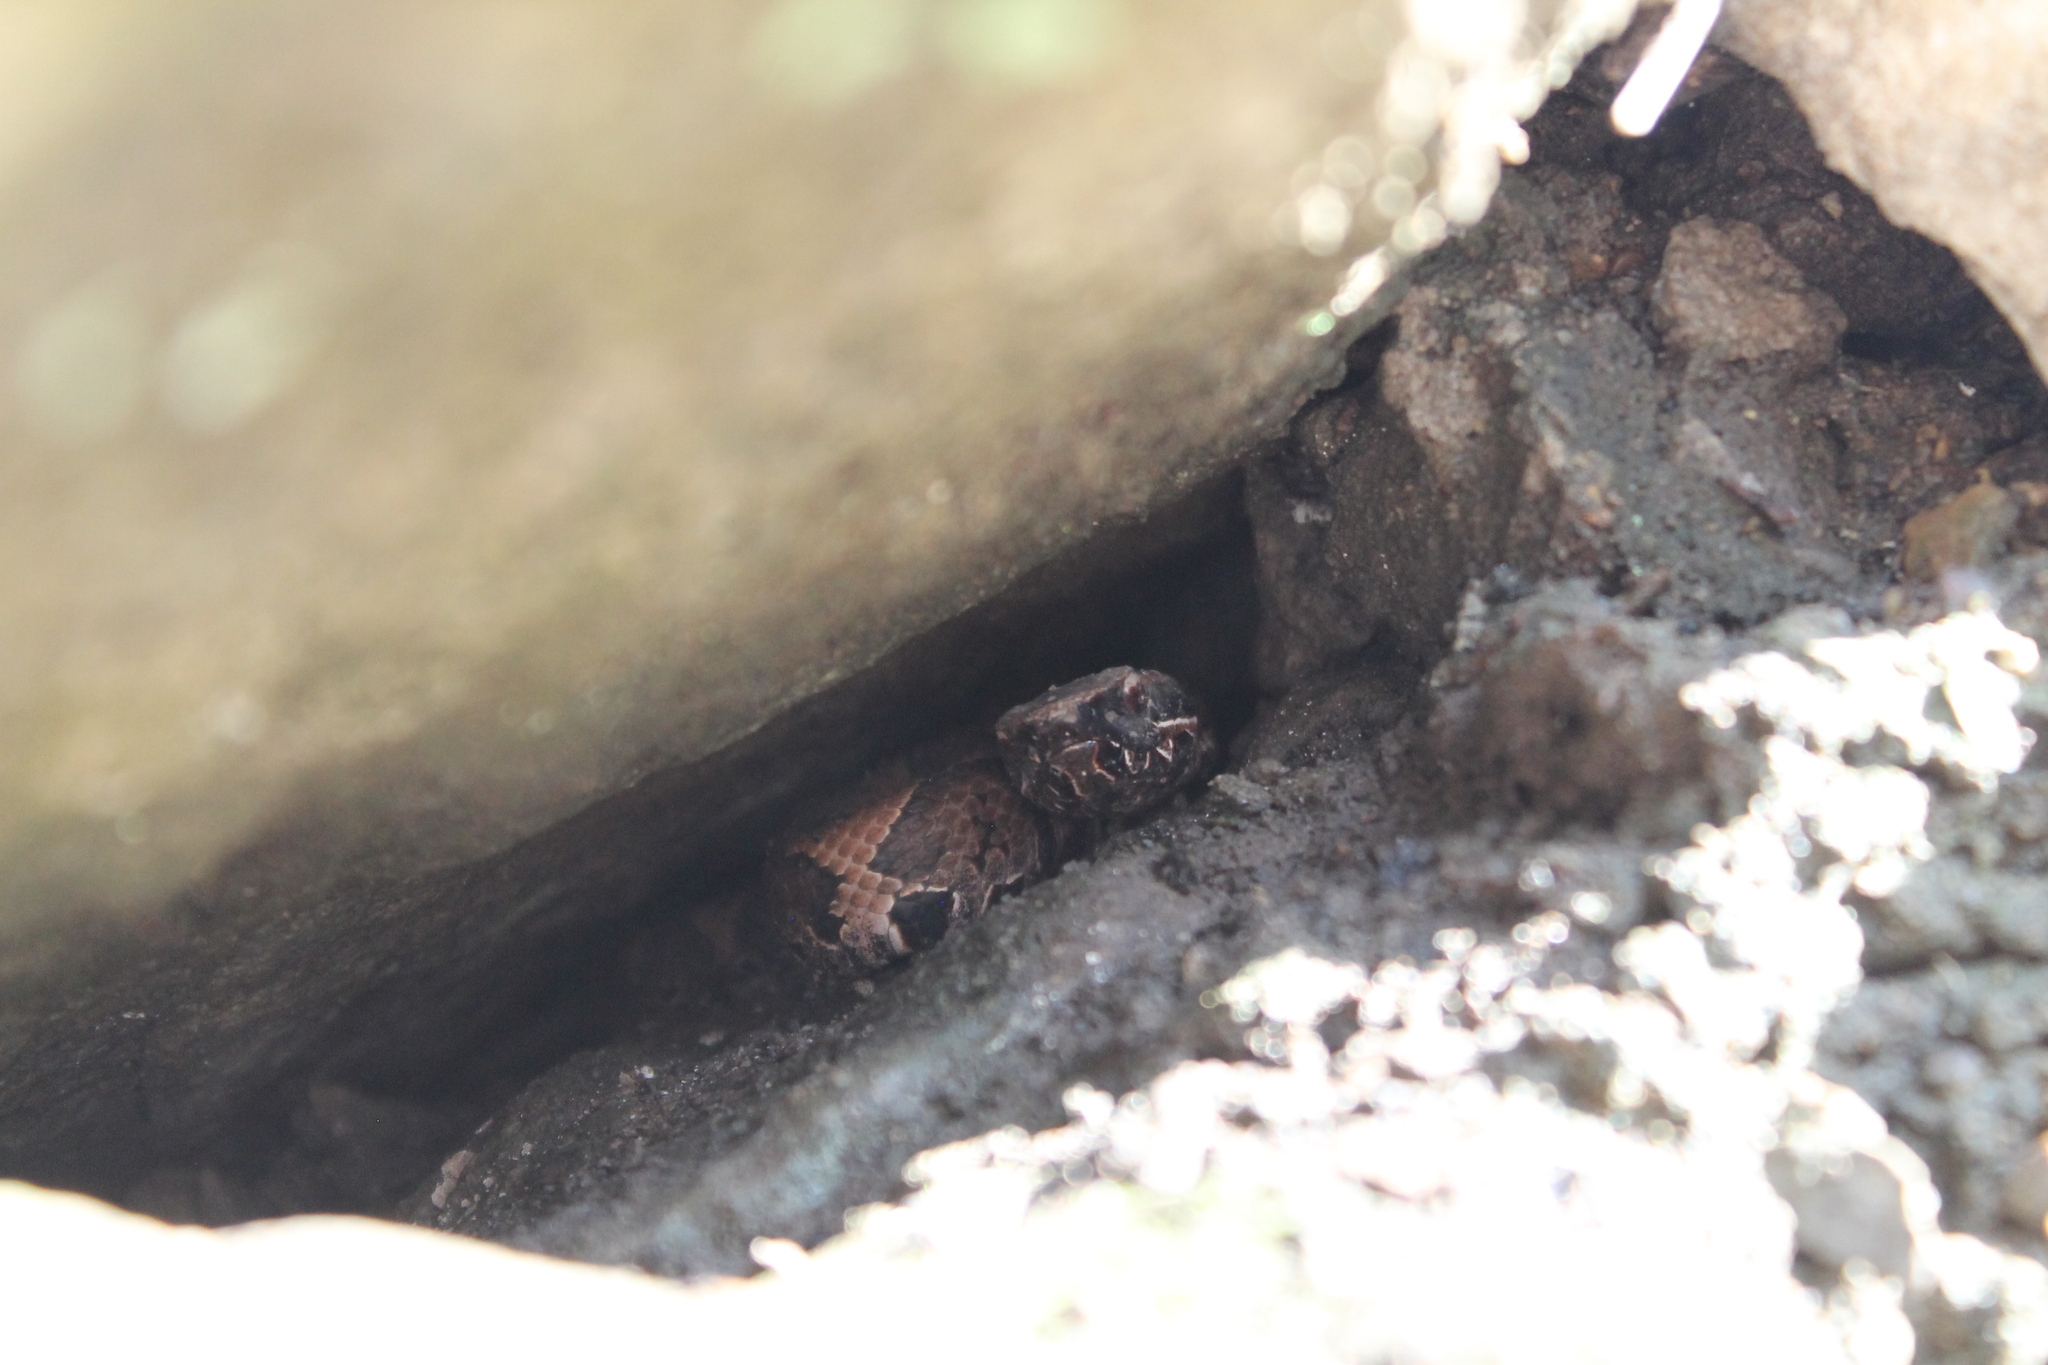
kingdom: Animalia
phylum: Chordata
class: Squamata
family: Viperidae
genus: Agkistrodon
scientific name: Agkistrodon piscivorus
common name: Cottonmouth
